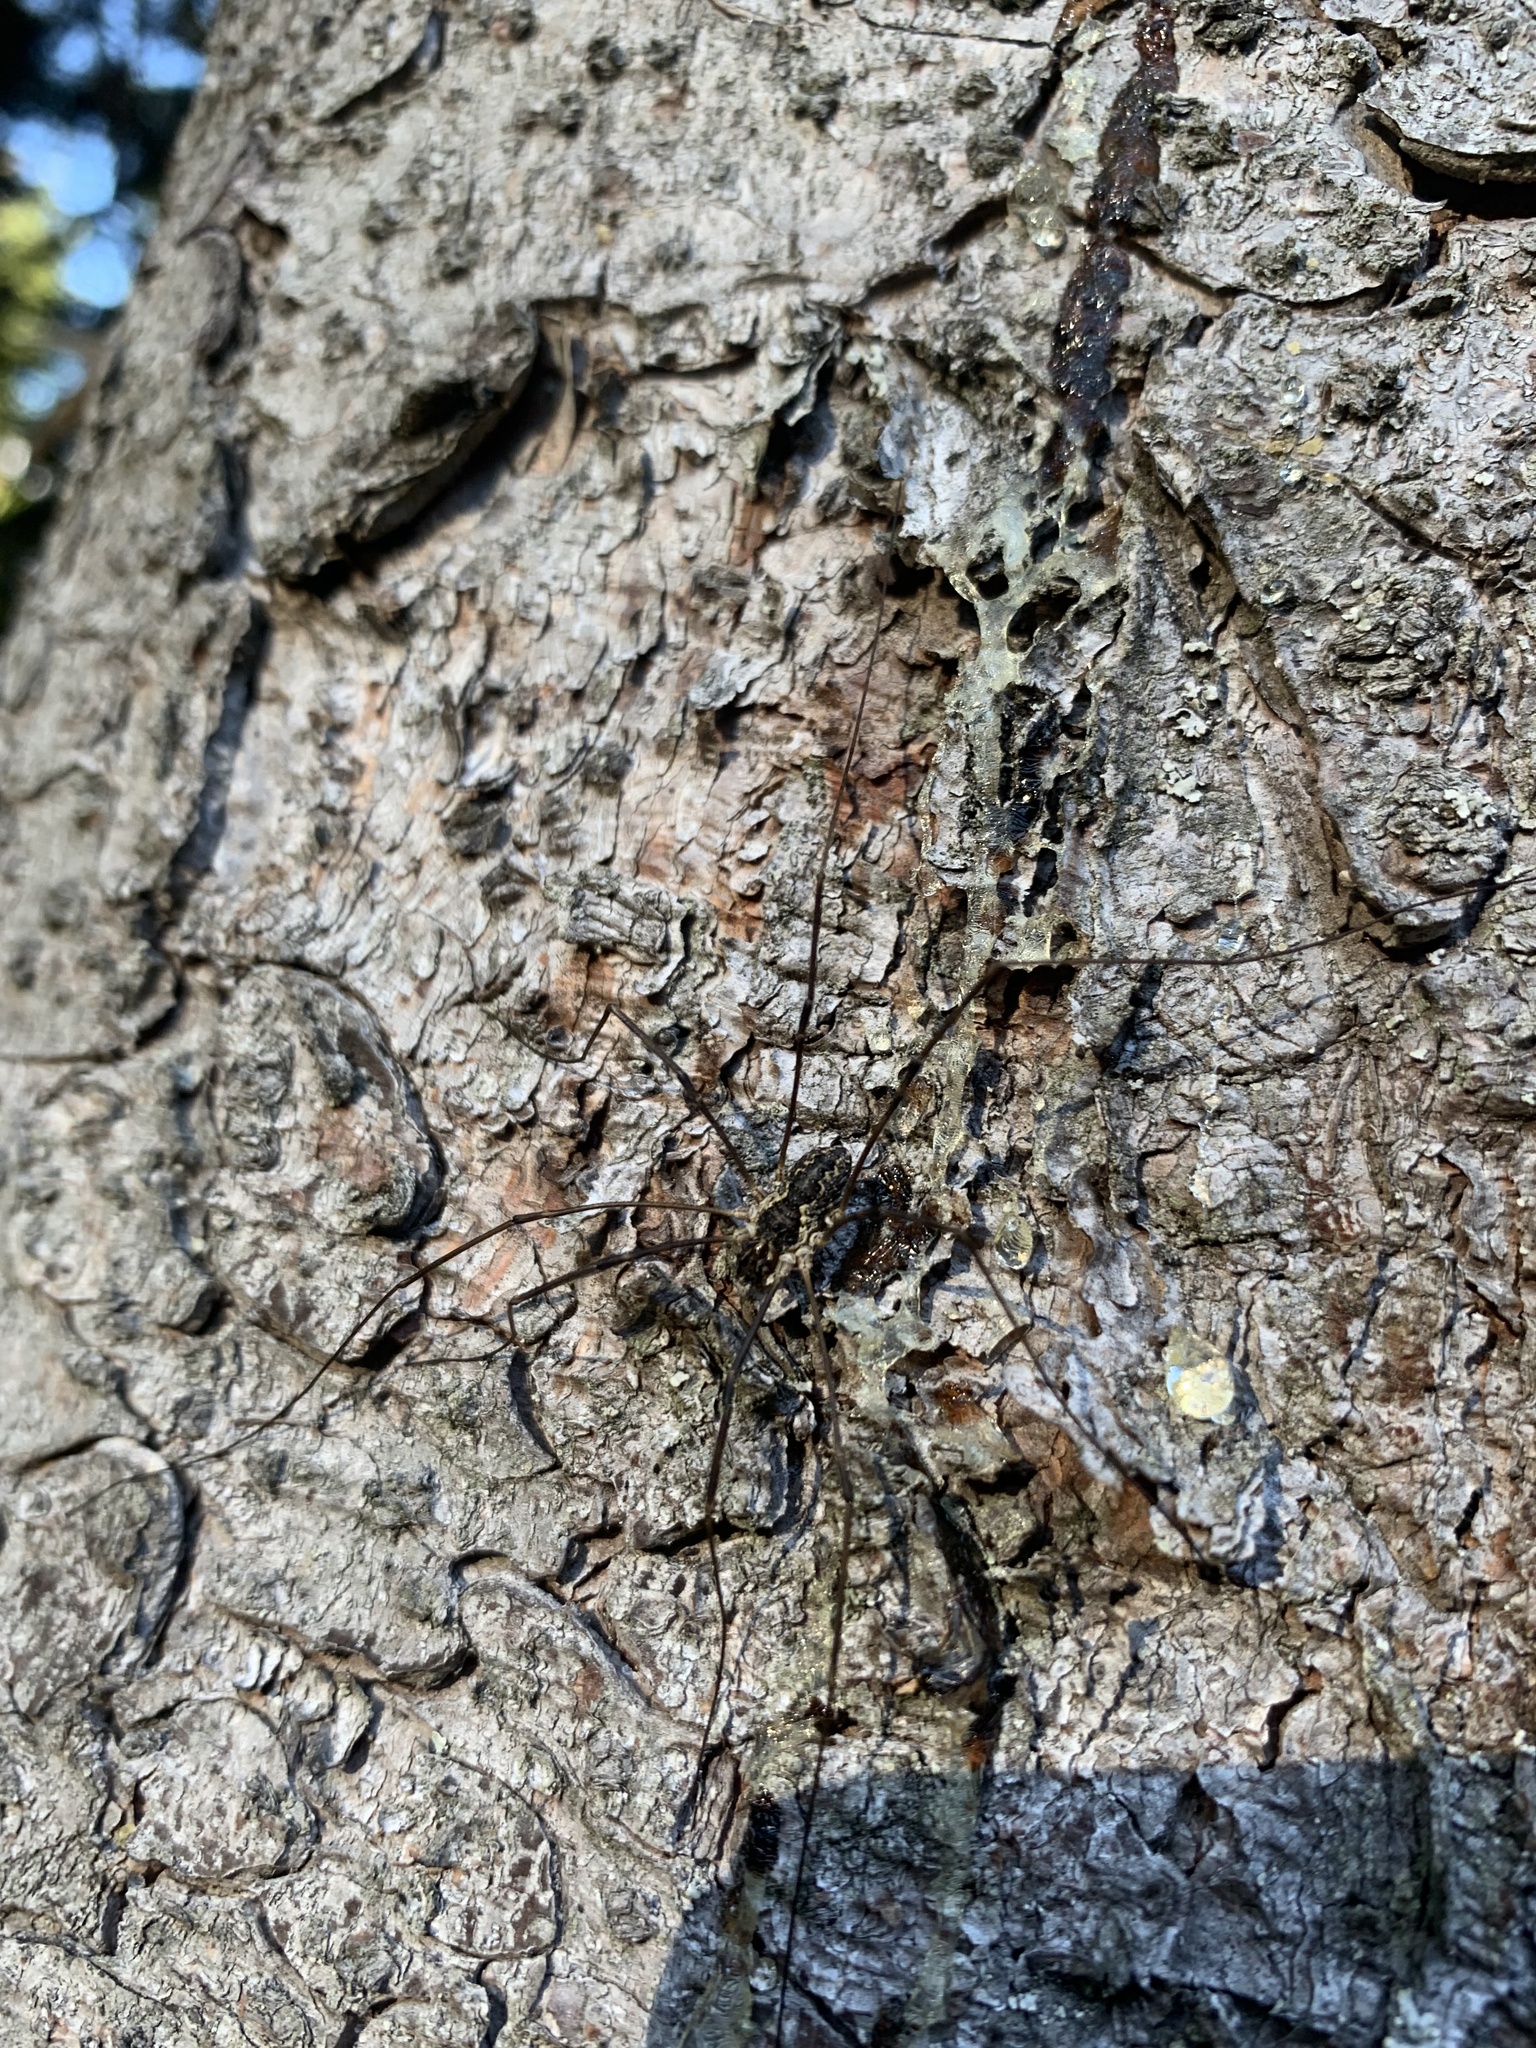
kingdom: Animalia
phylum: Arthropoda
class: Arachnida
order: Opiliones
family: Phalangiidae
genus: Mitopus
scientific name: Mitopus morio
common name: Saddleback harvestman
